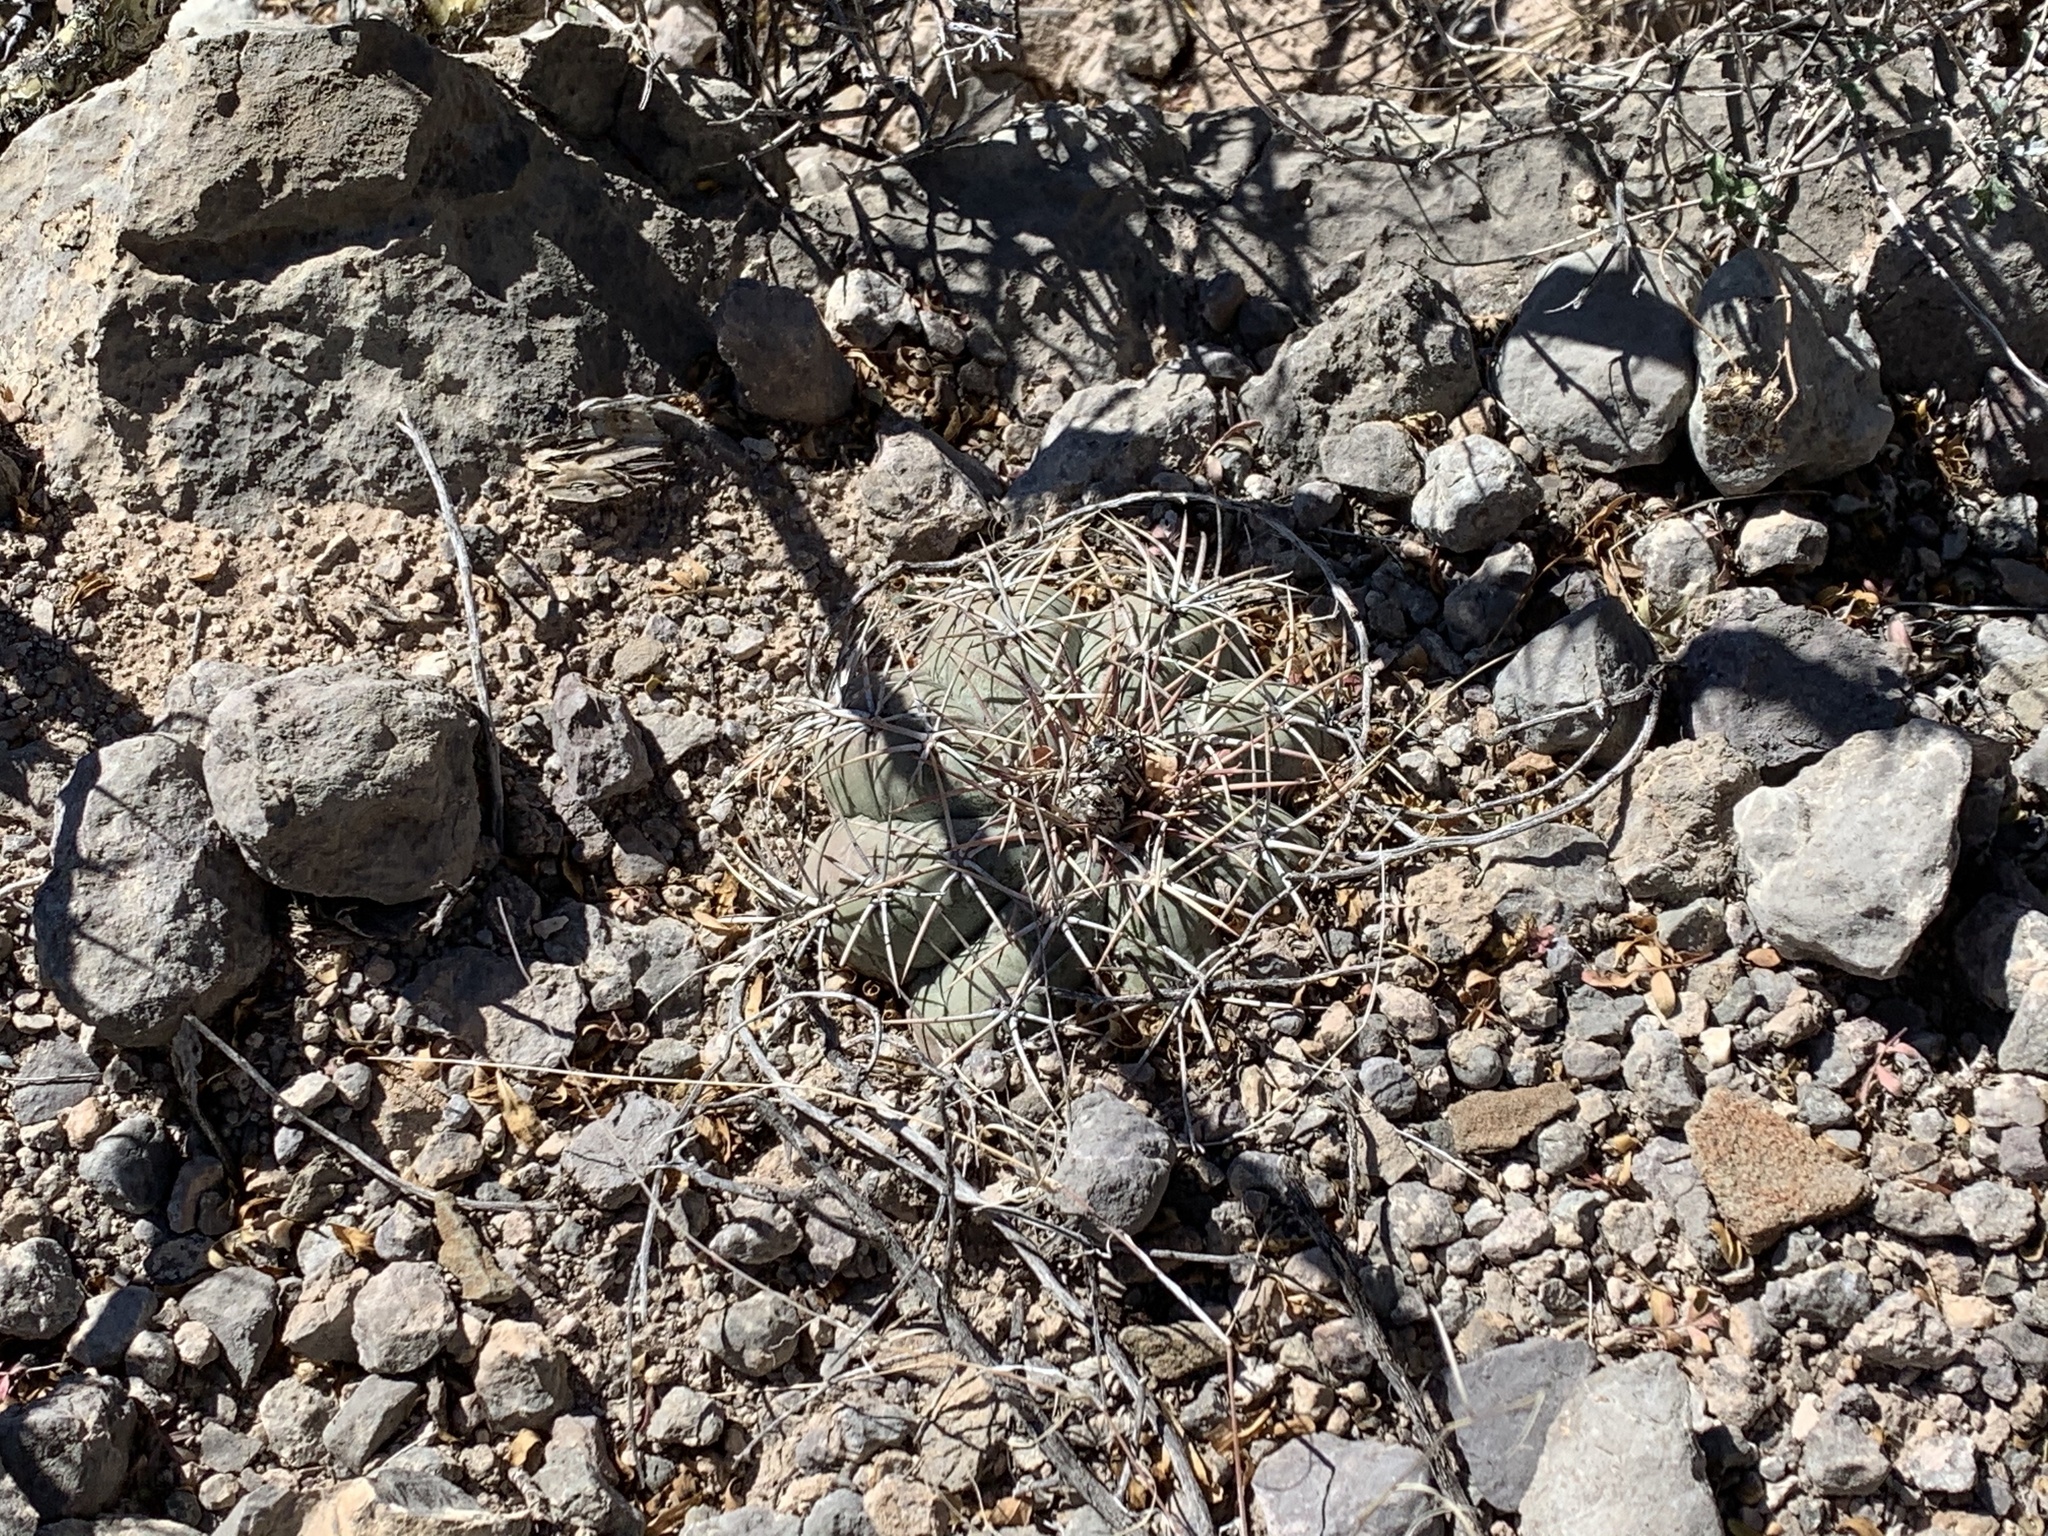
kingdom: Plantae
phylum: Tracheophyta
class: Magnoliopsida
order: Caryophyllales
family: Cactaceae
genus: Echinocactus
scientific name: Echinocactus horizonthalonius
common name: Devilshead
